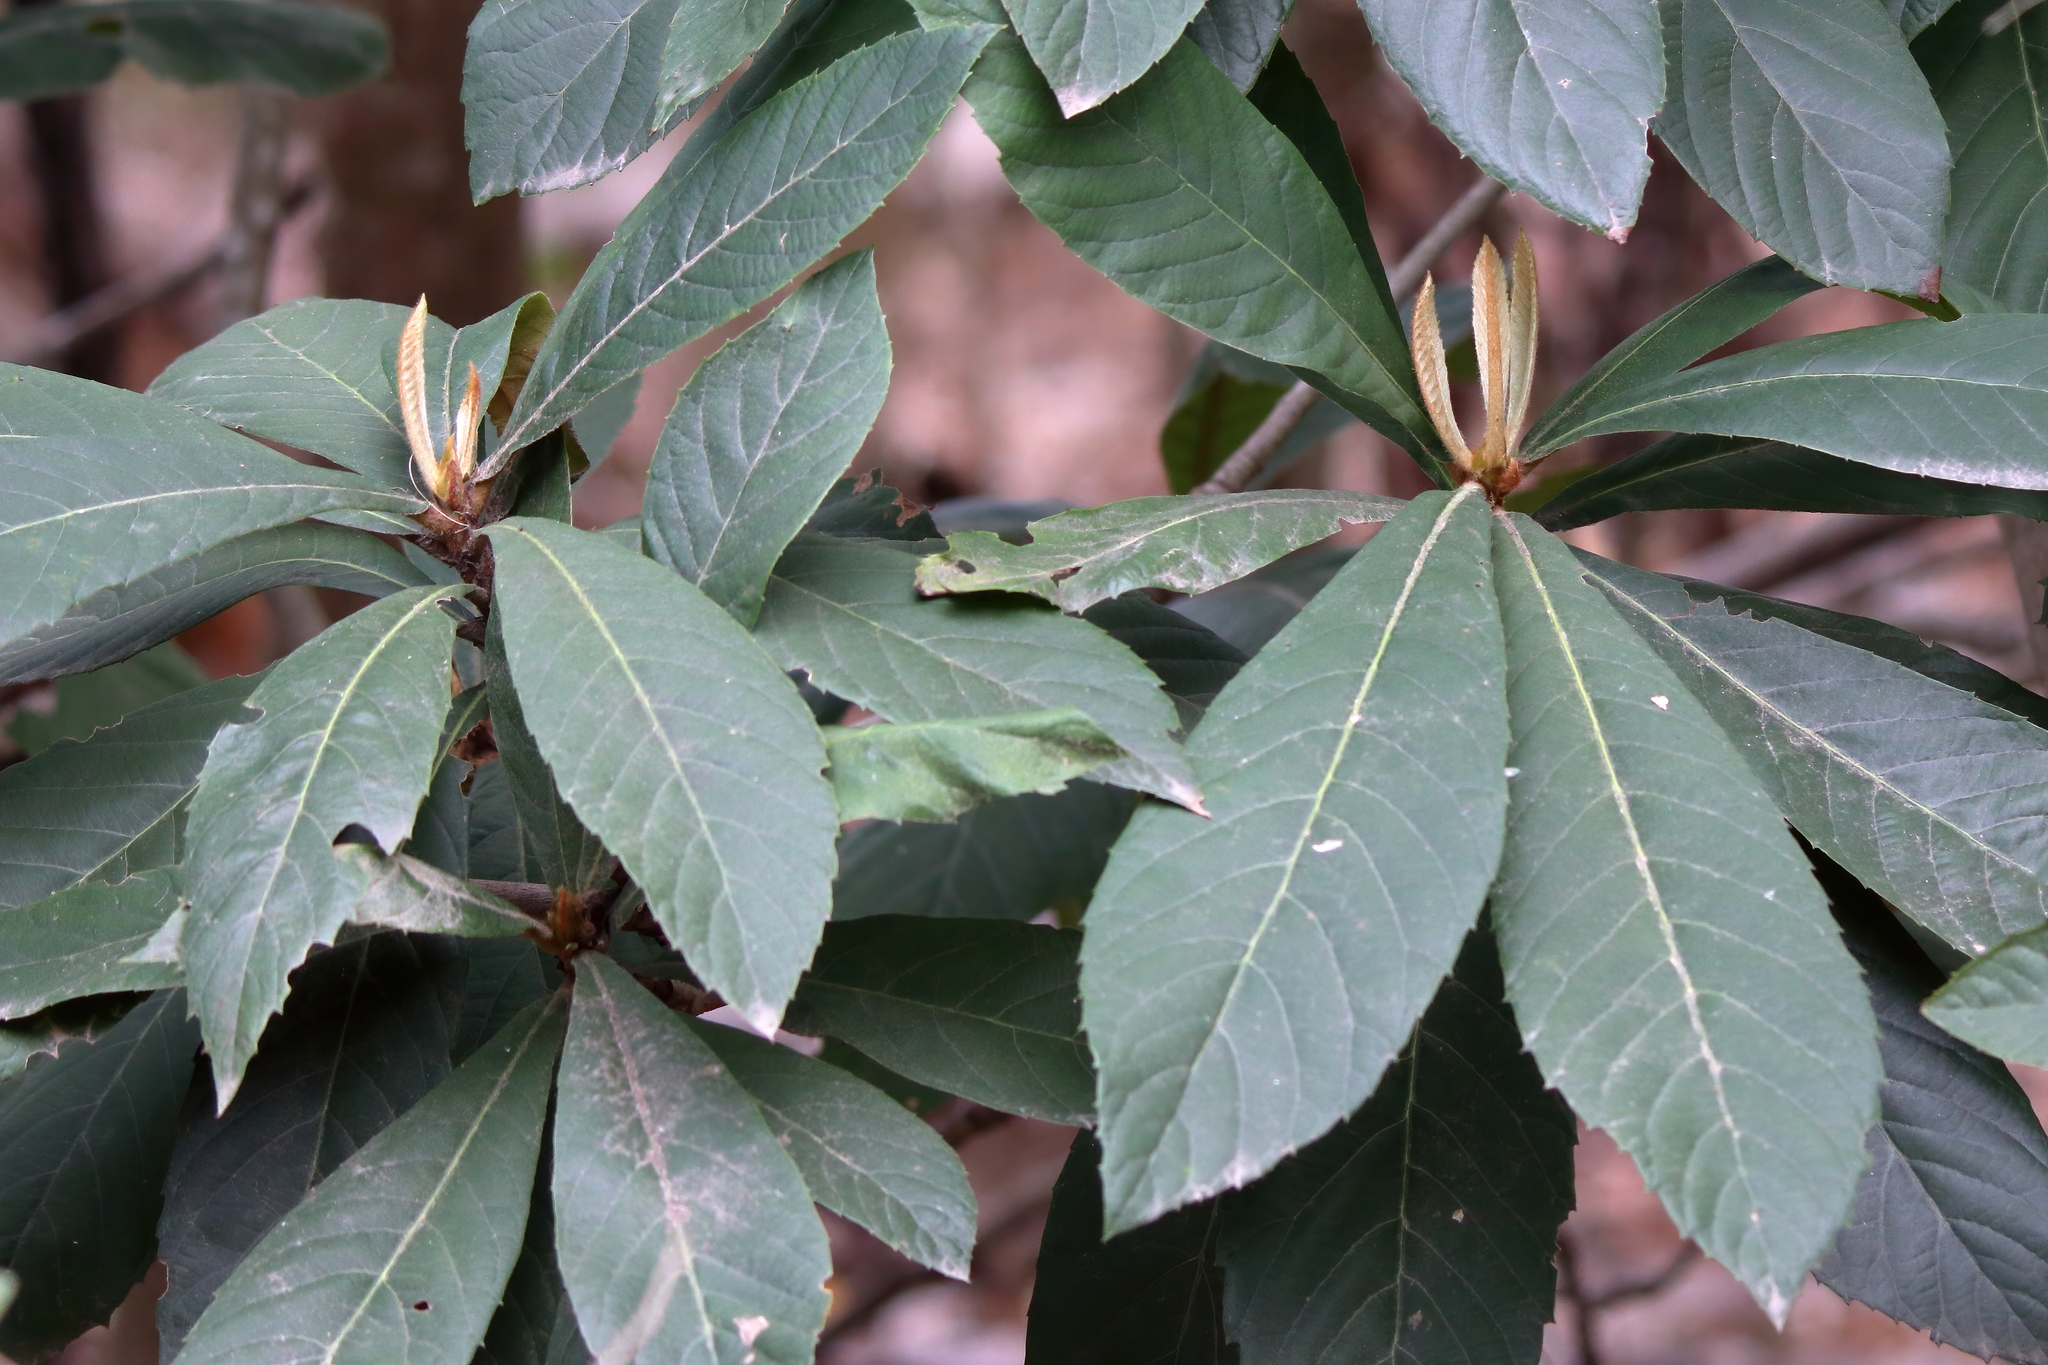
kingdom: Plantae
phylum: Tracheophyta
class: Magnoliopsida
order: Rosales
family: Rosaceae
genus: Rhaphiolepis
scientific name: Rhaphiolepis bibas
